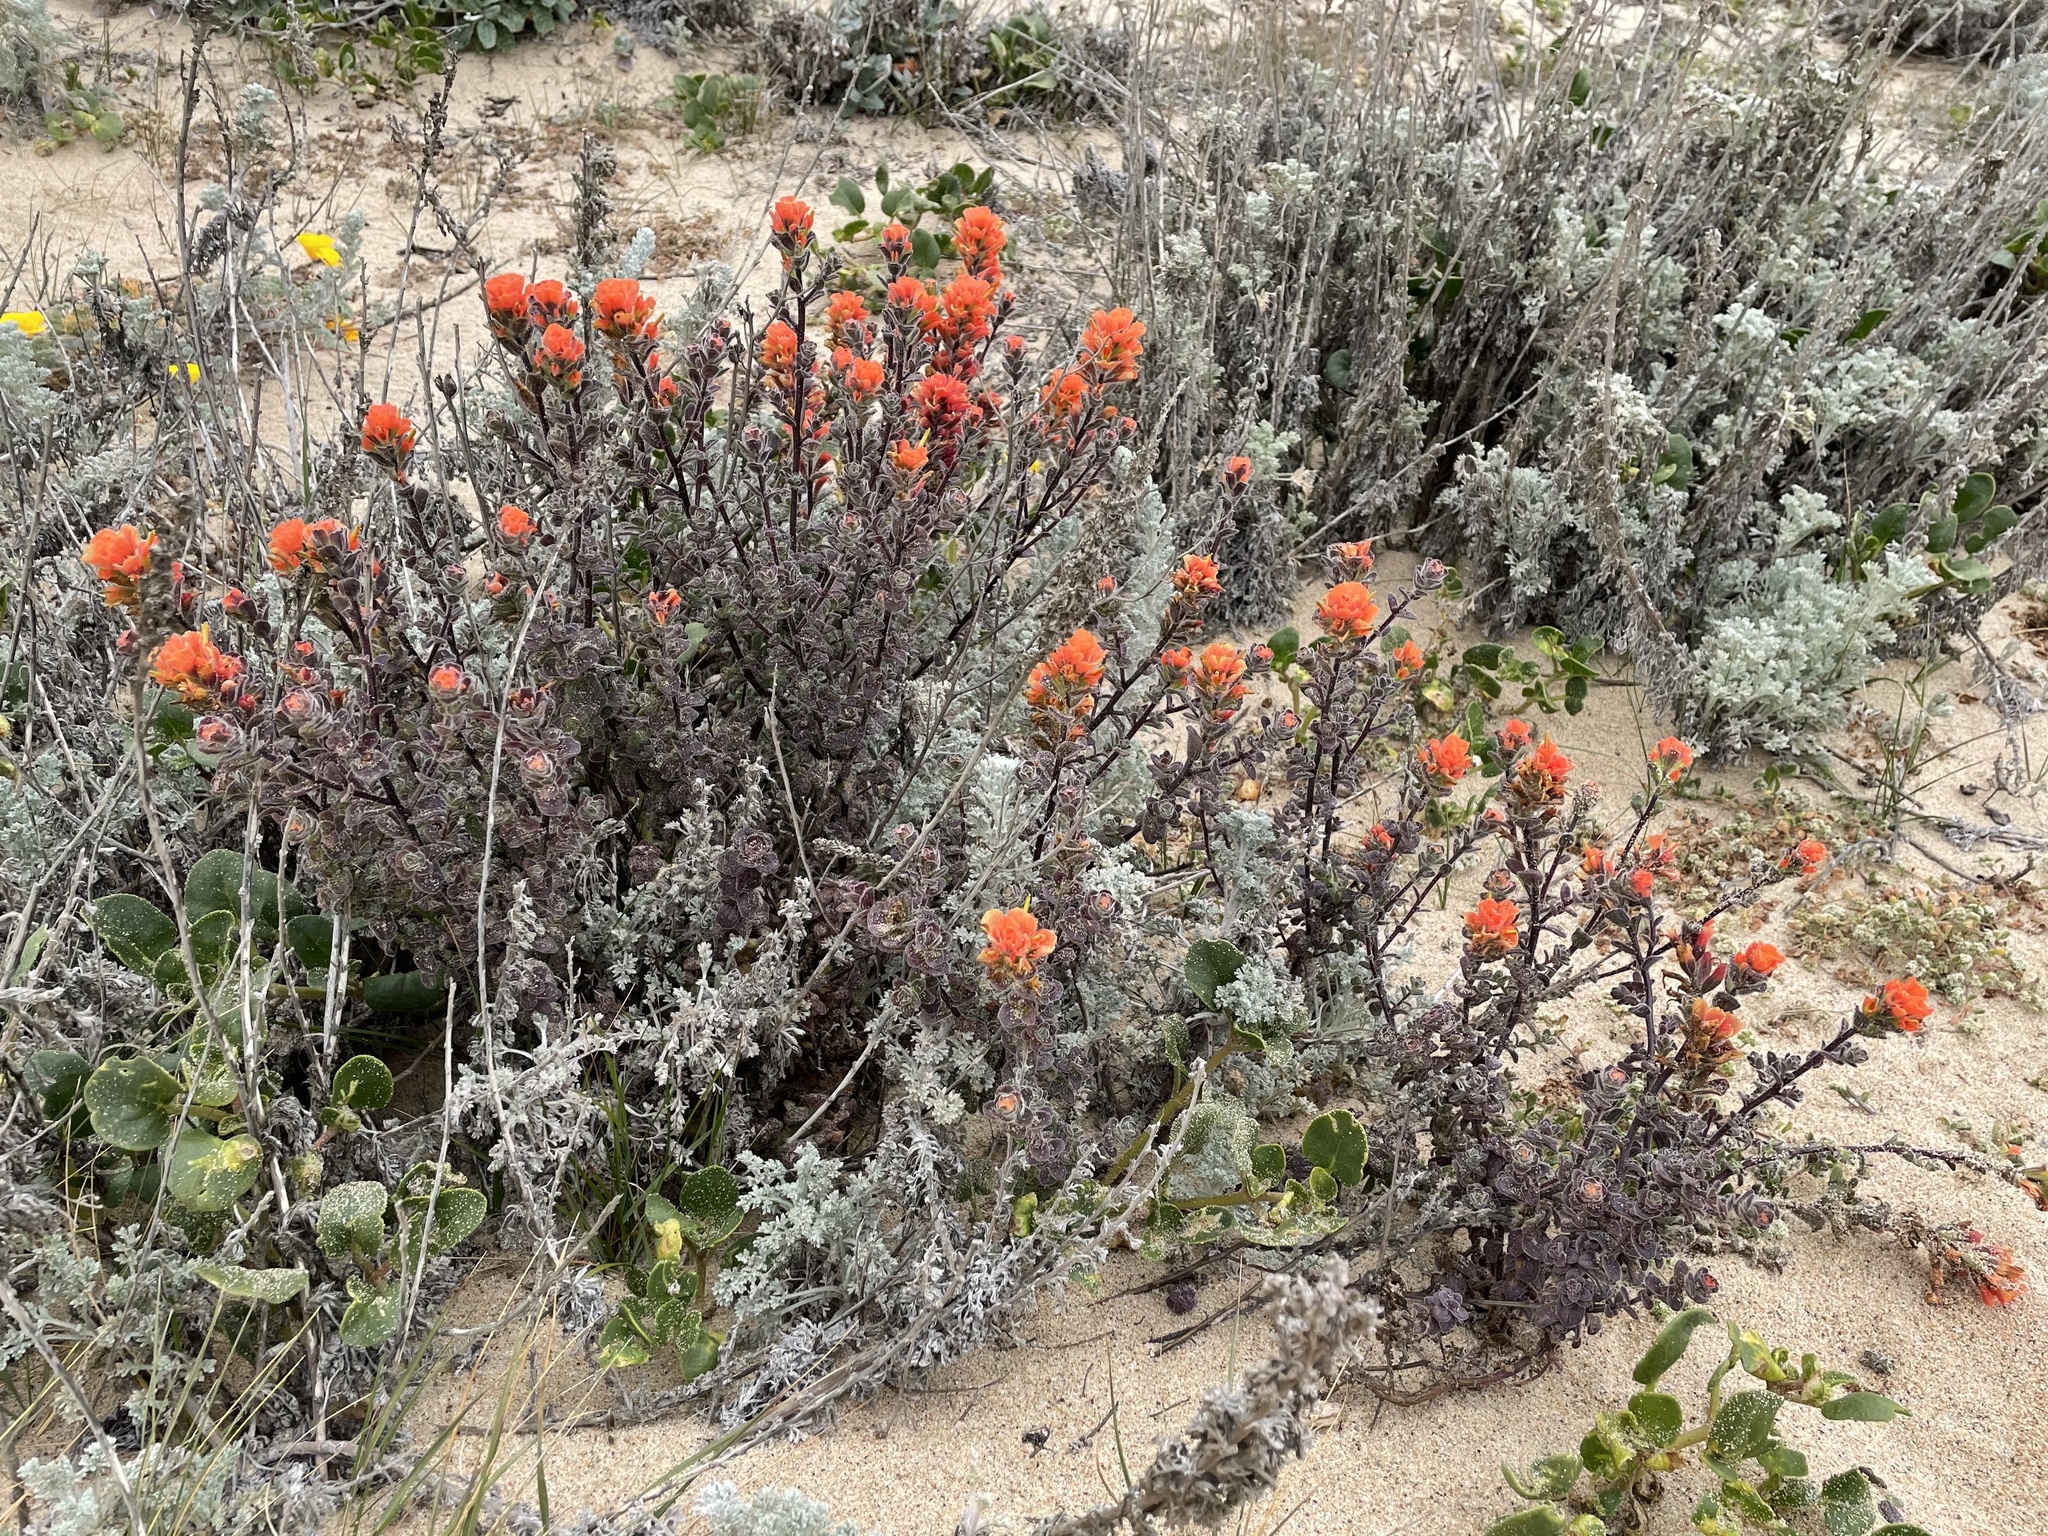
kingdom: Plantae
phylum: Tracheophyta
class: Magnoliopsida
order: Lamiales
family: Orobanchaceae
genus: Castilleja
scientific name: Castilleja latifolia
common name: Monterey indian paintbrush
